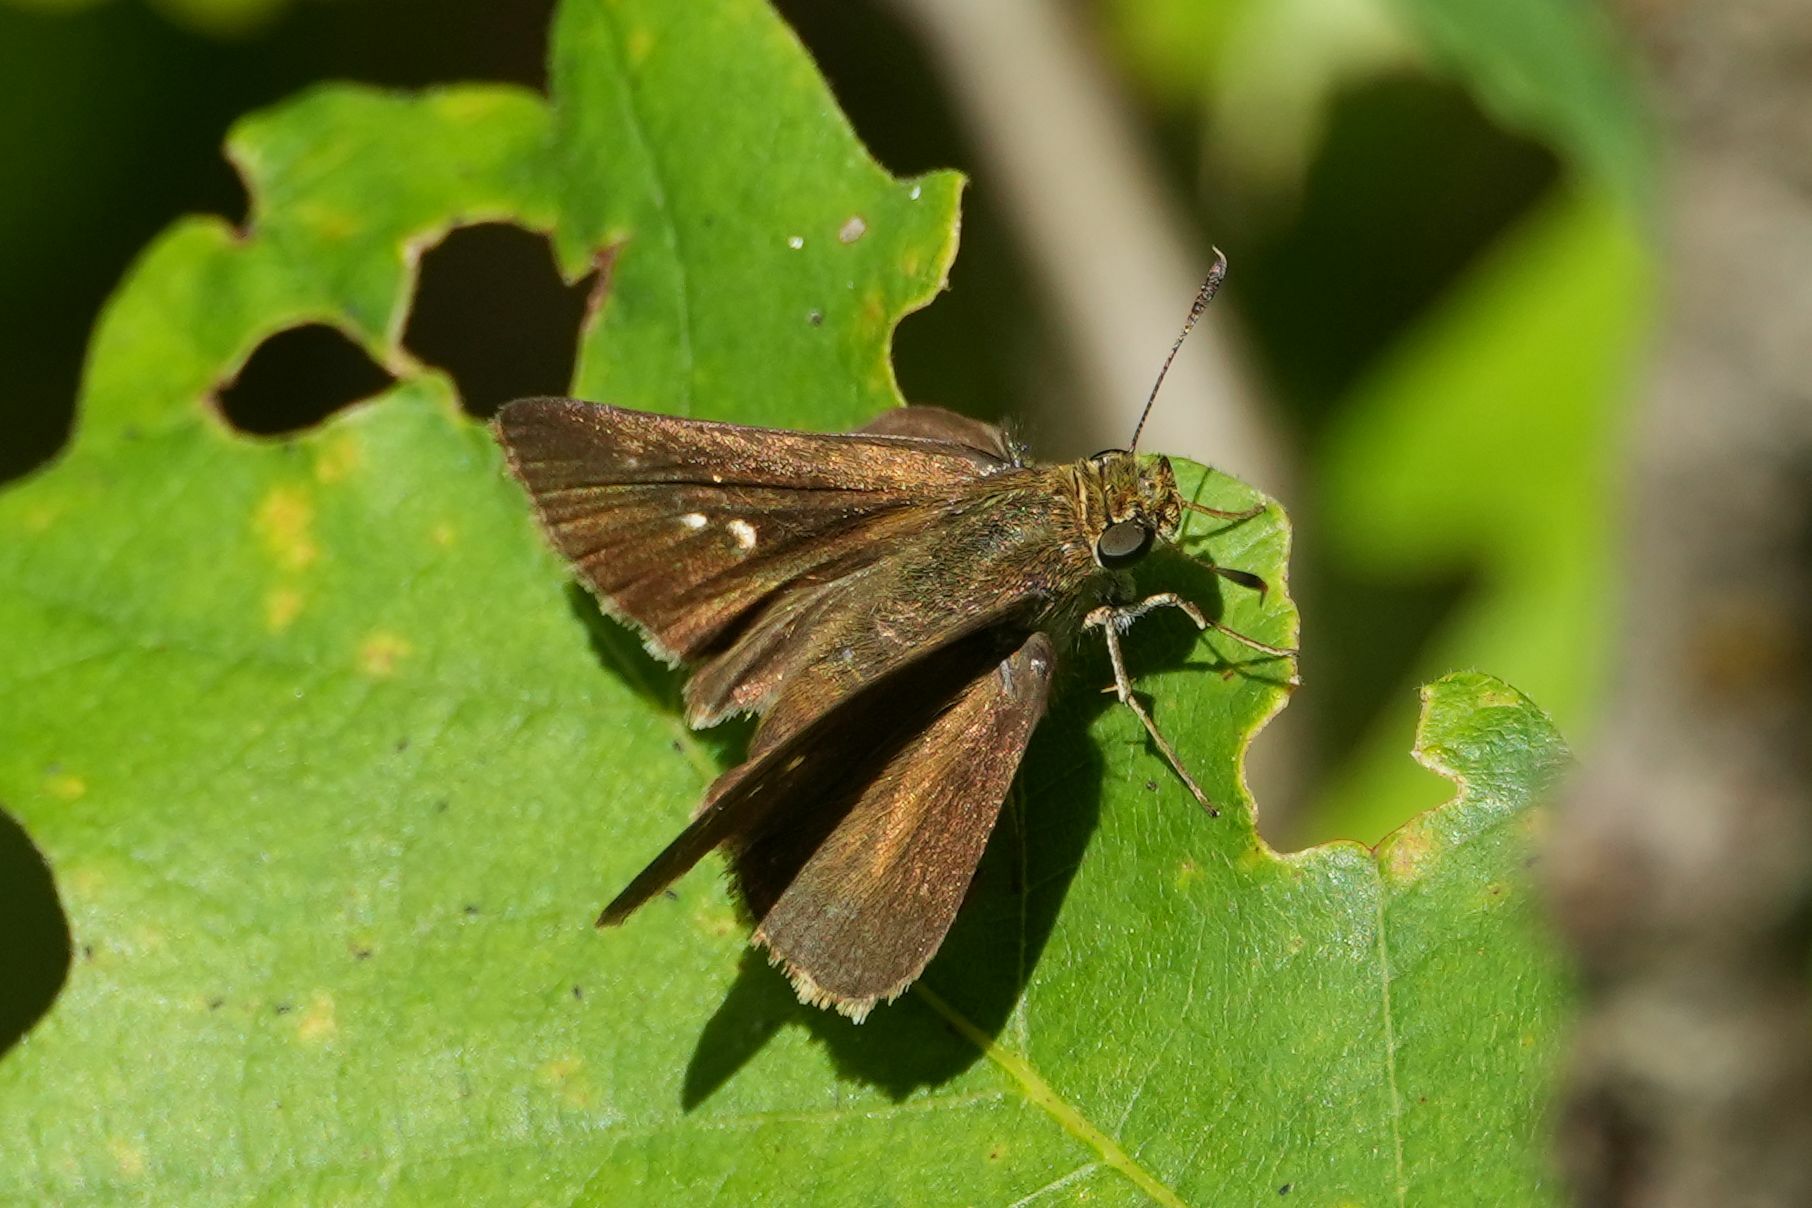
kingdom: Animalia
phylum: Arthropoda
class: Insecta
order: Lepidoptera
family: Hesperiidae
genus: Euphyes
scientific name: Euphyes vestris
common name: Dun skipper
